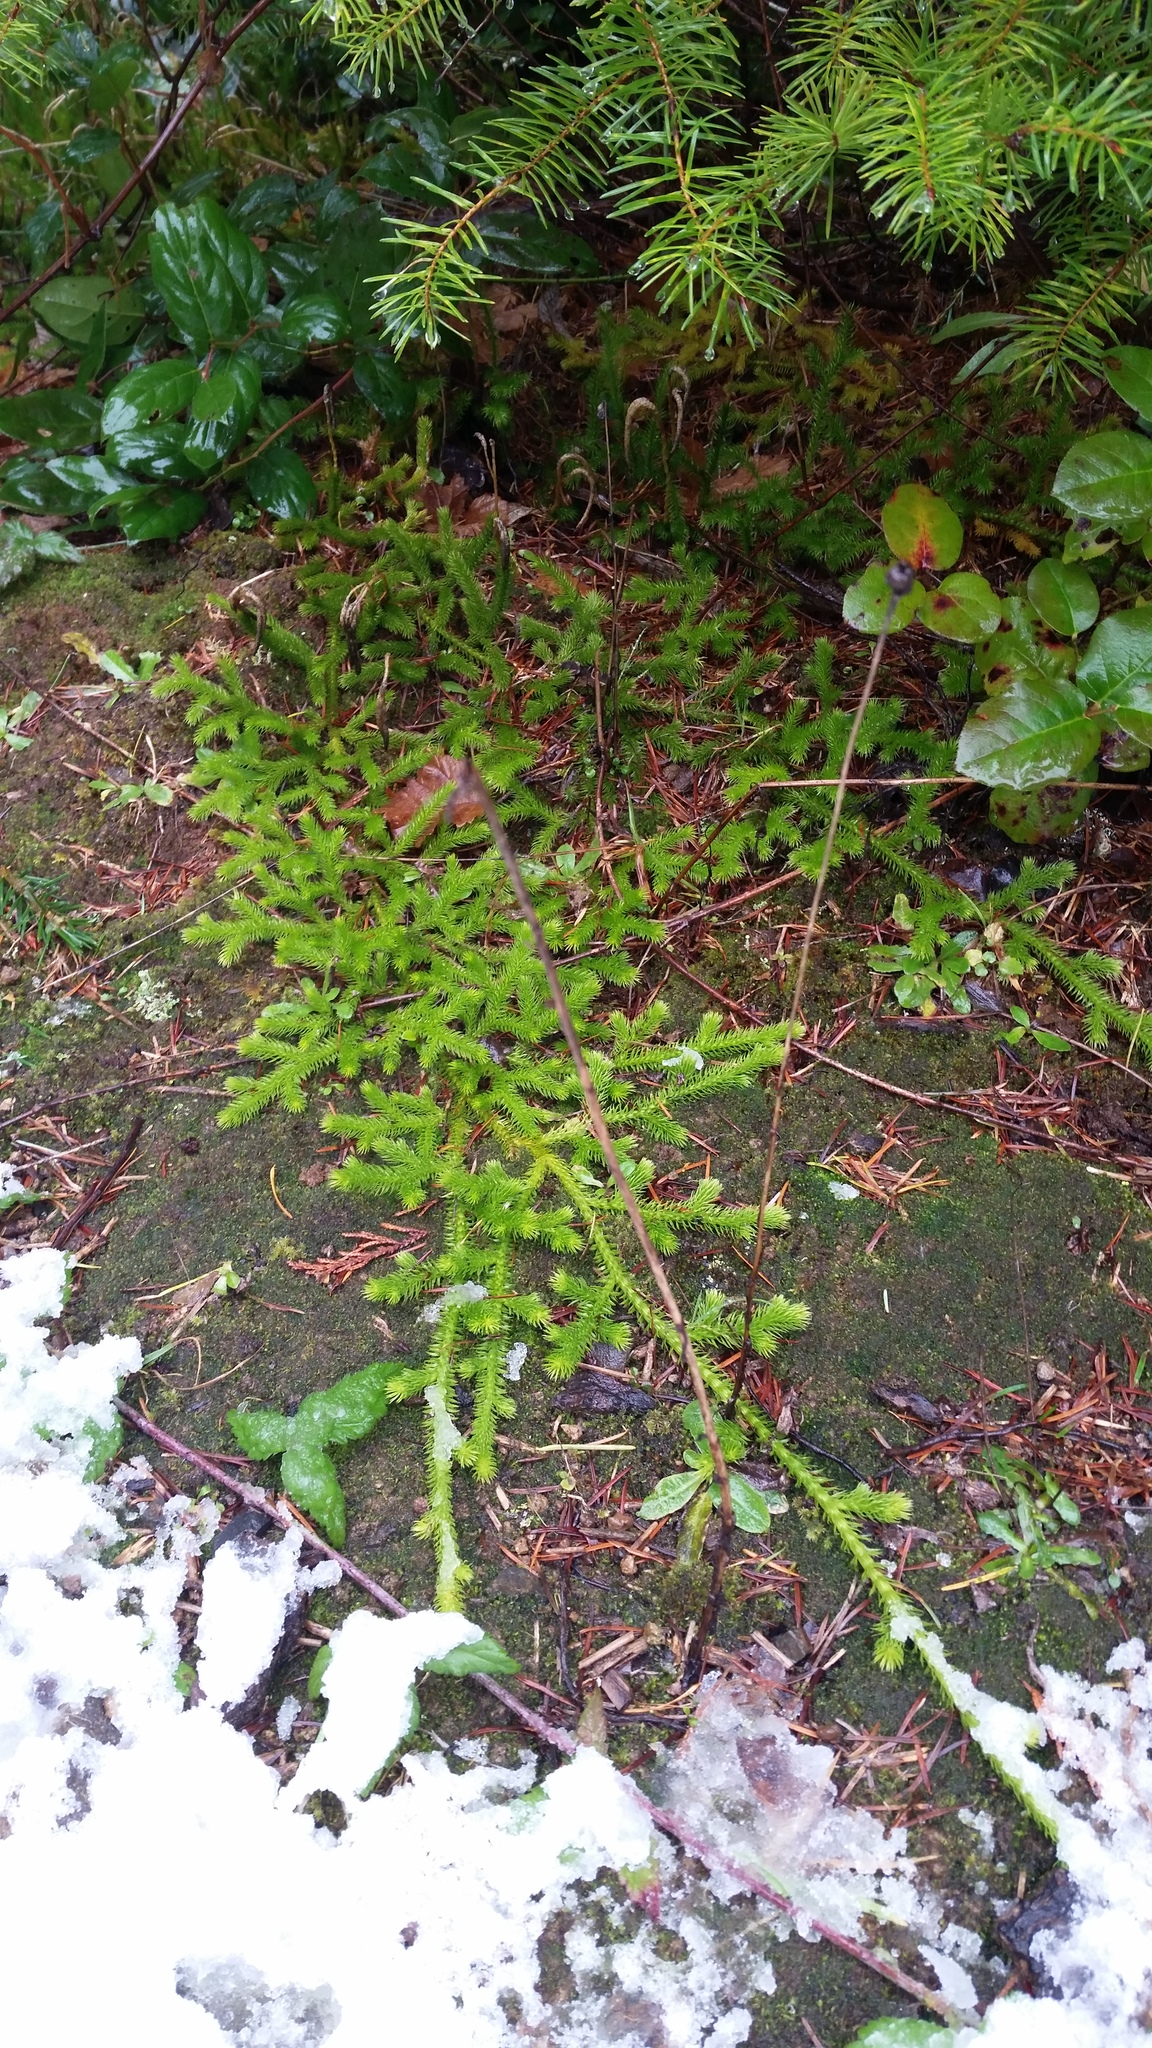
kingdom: Plantae
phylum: Tracheophyta
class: Lycopodiopsida
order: Lycopodiales
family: Lycopodiaceae
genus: Lycopodium
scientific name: Lycopodium clavatum
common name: Stag's-horn clubmoss
